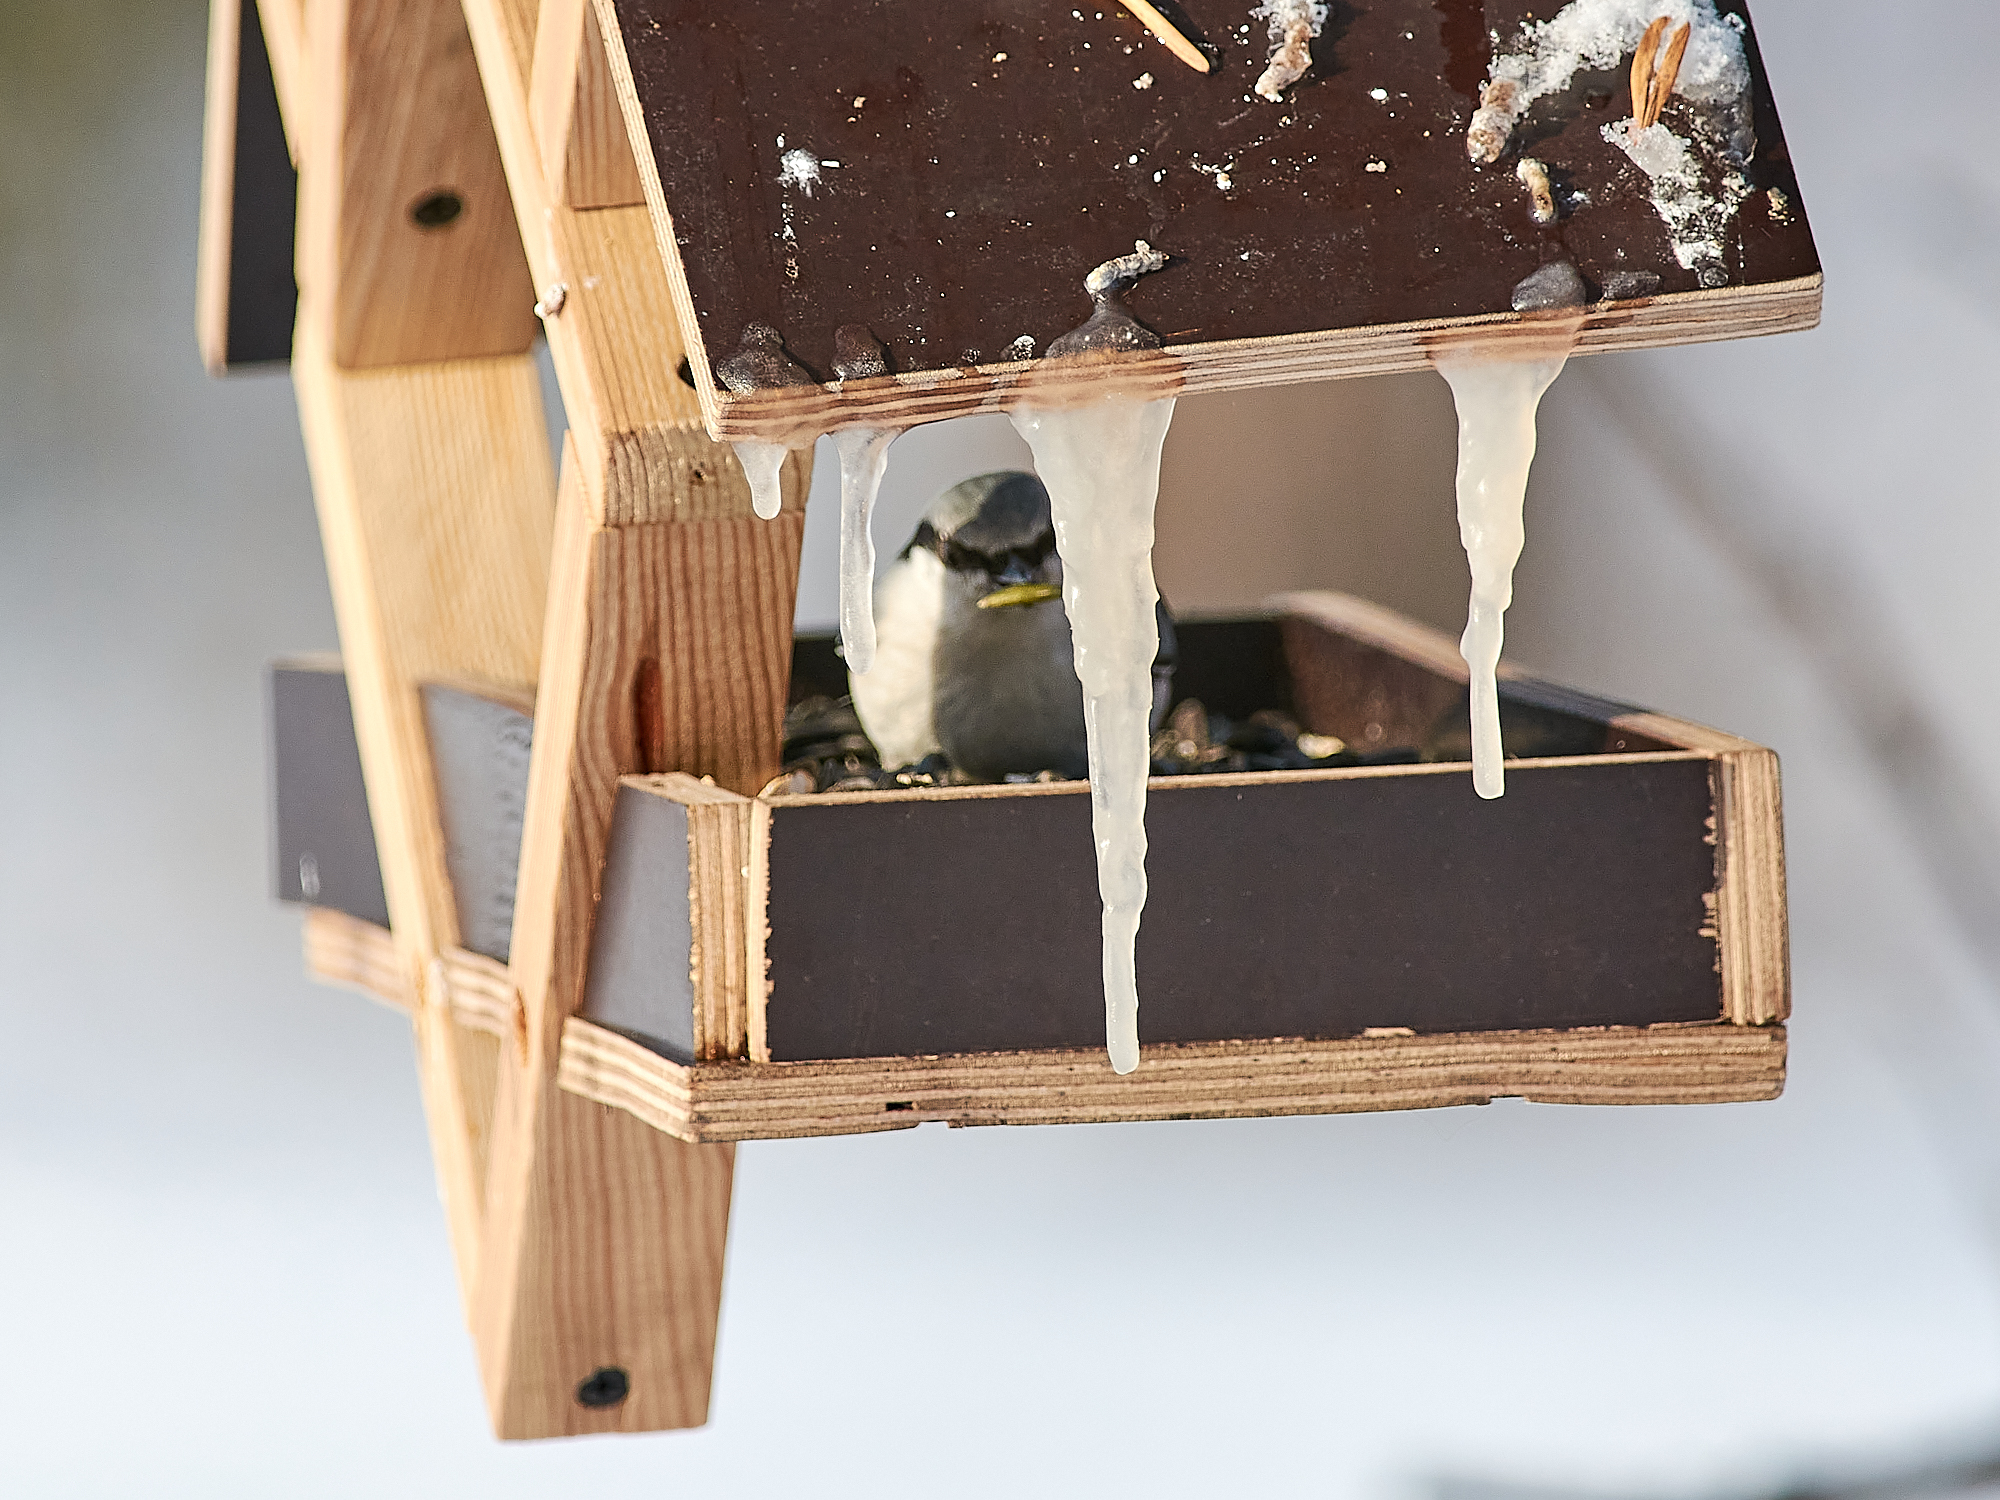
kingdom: Animalia
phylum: Chordata
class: Aves
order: Passeriformes
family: Sittidae
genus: Sitta
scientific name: Sitta europaea
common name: Eurasian nuthatch
